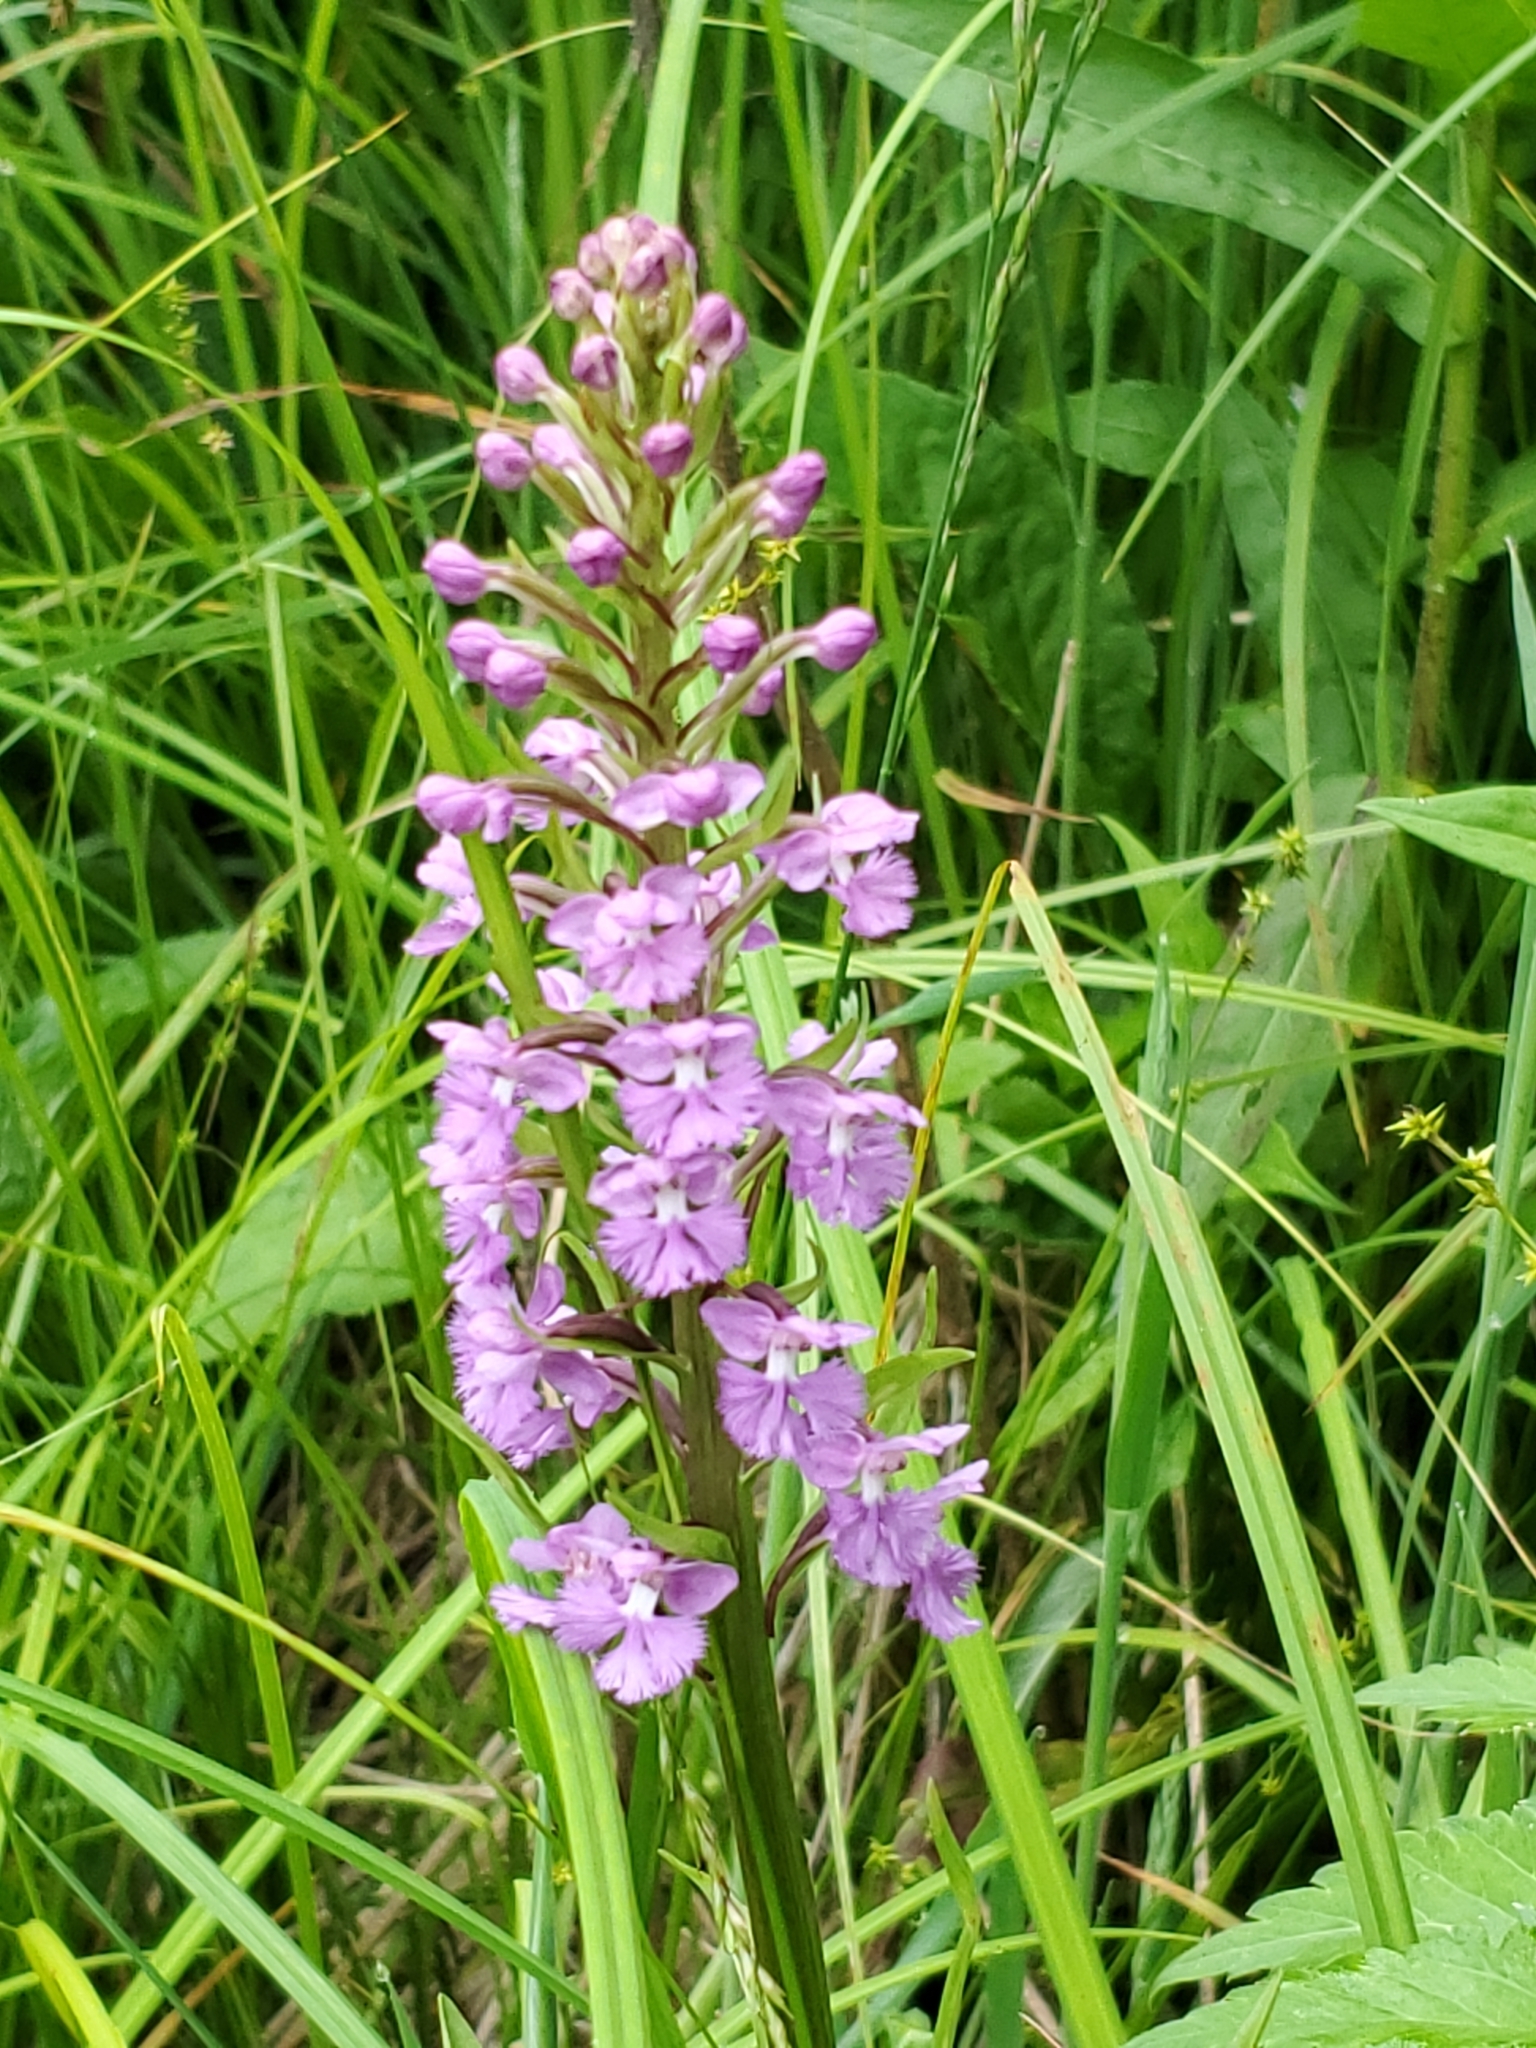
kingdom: Plantae
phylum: Tracheophyta
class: Liliopsida
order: Asparagales
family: Orchidaceae
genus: Platanthera
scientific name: Platanthera psycodes
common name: Lesser purple fringed orchid
